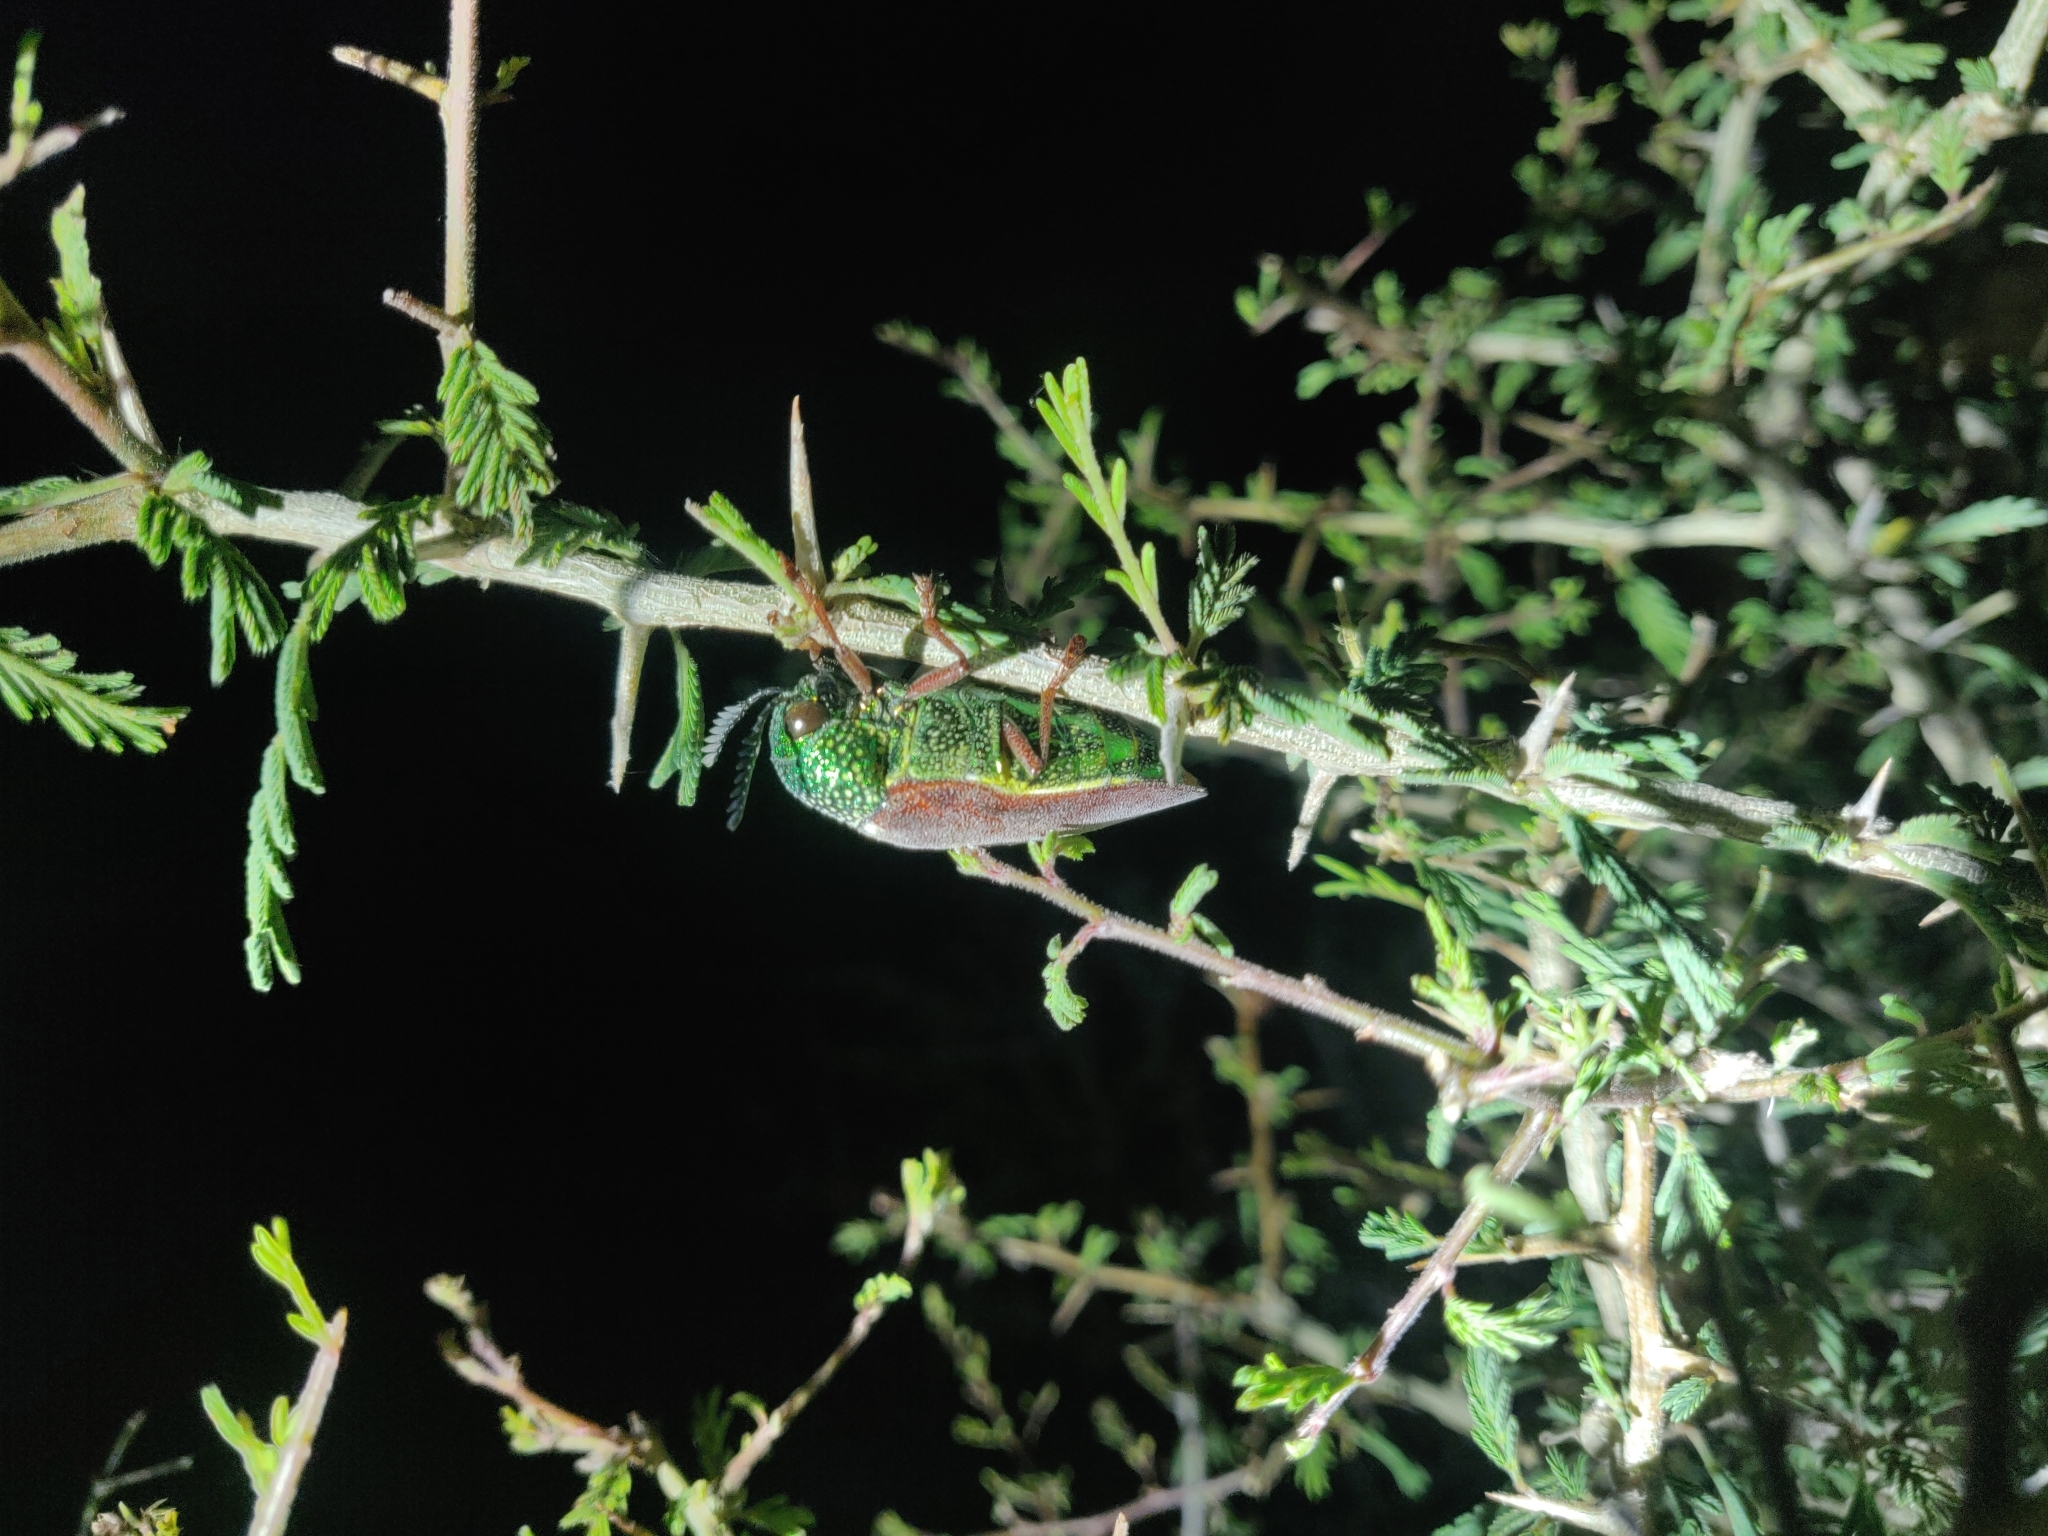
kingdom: Animalia
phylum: Arthropoda
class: Insecta
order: Coleoptera
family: Buprestidae
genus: Sternocera
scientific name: Sternocera chrysis
